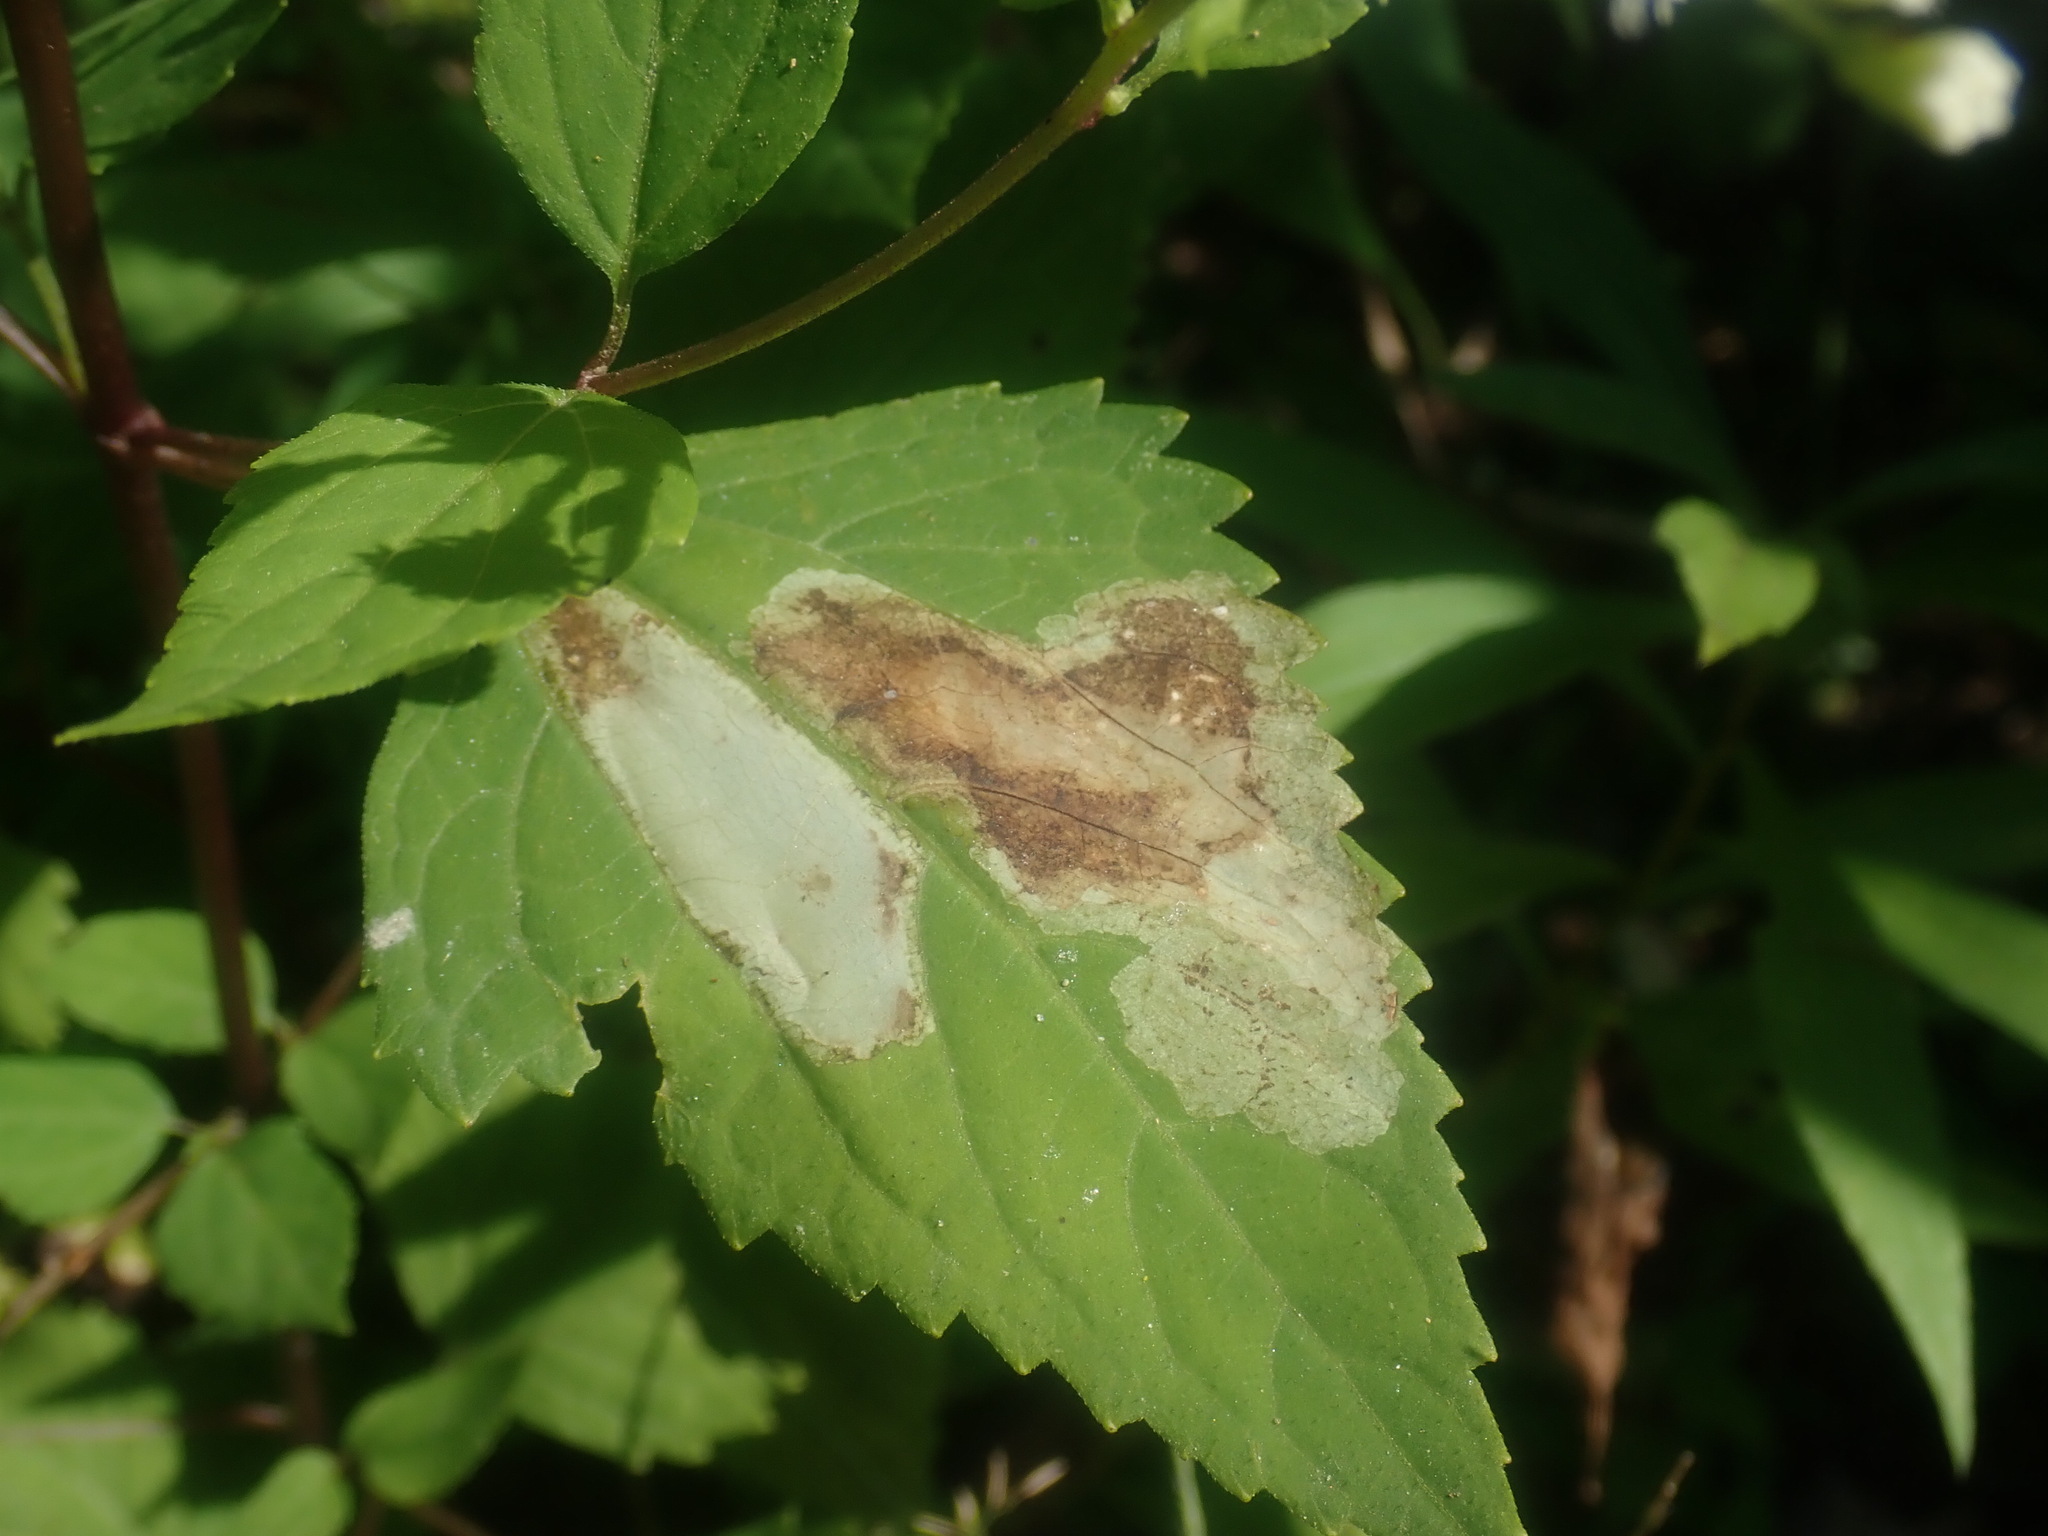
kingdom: Animalia
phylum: Arthropoda
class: Insecta
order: Diptera
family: Agromyzidae
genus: Calycomyza
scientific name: Calycomyza
